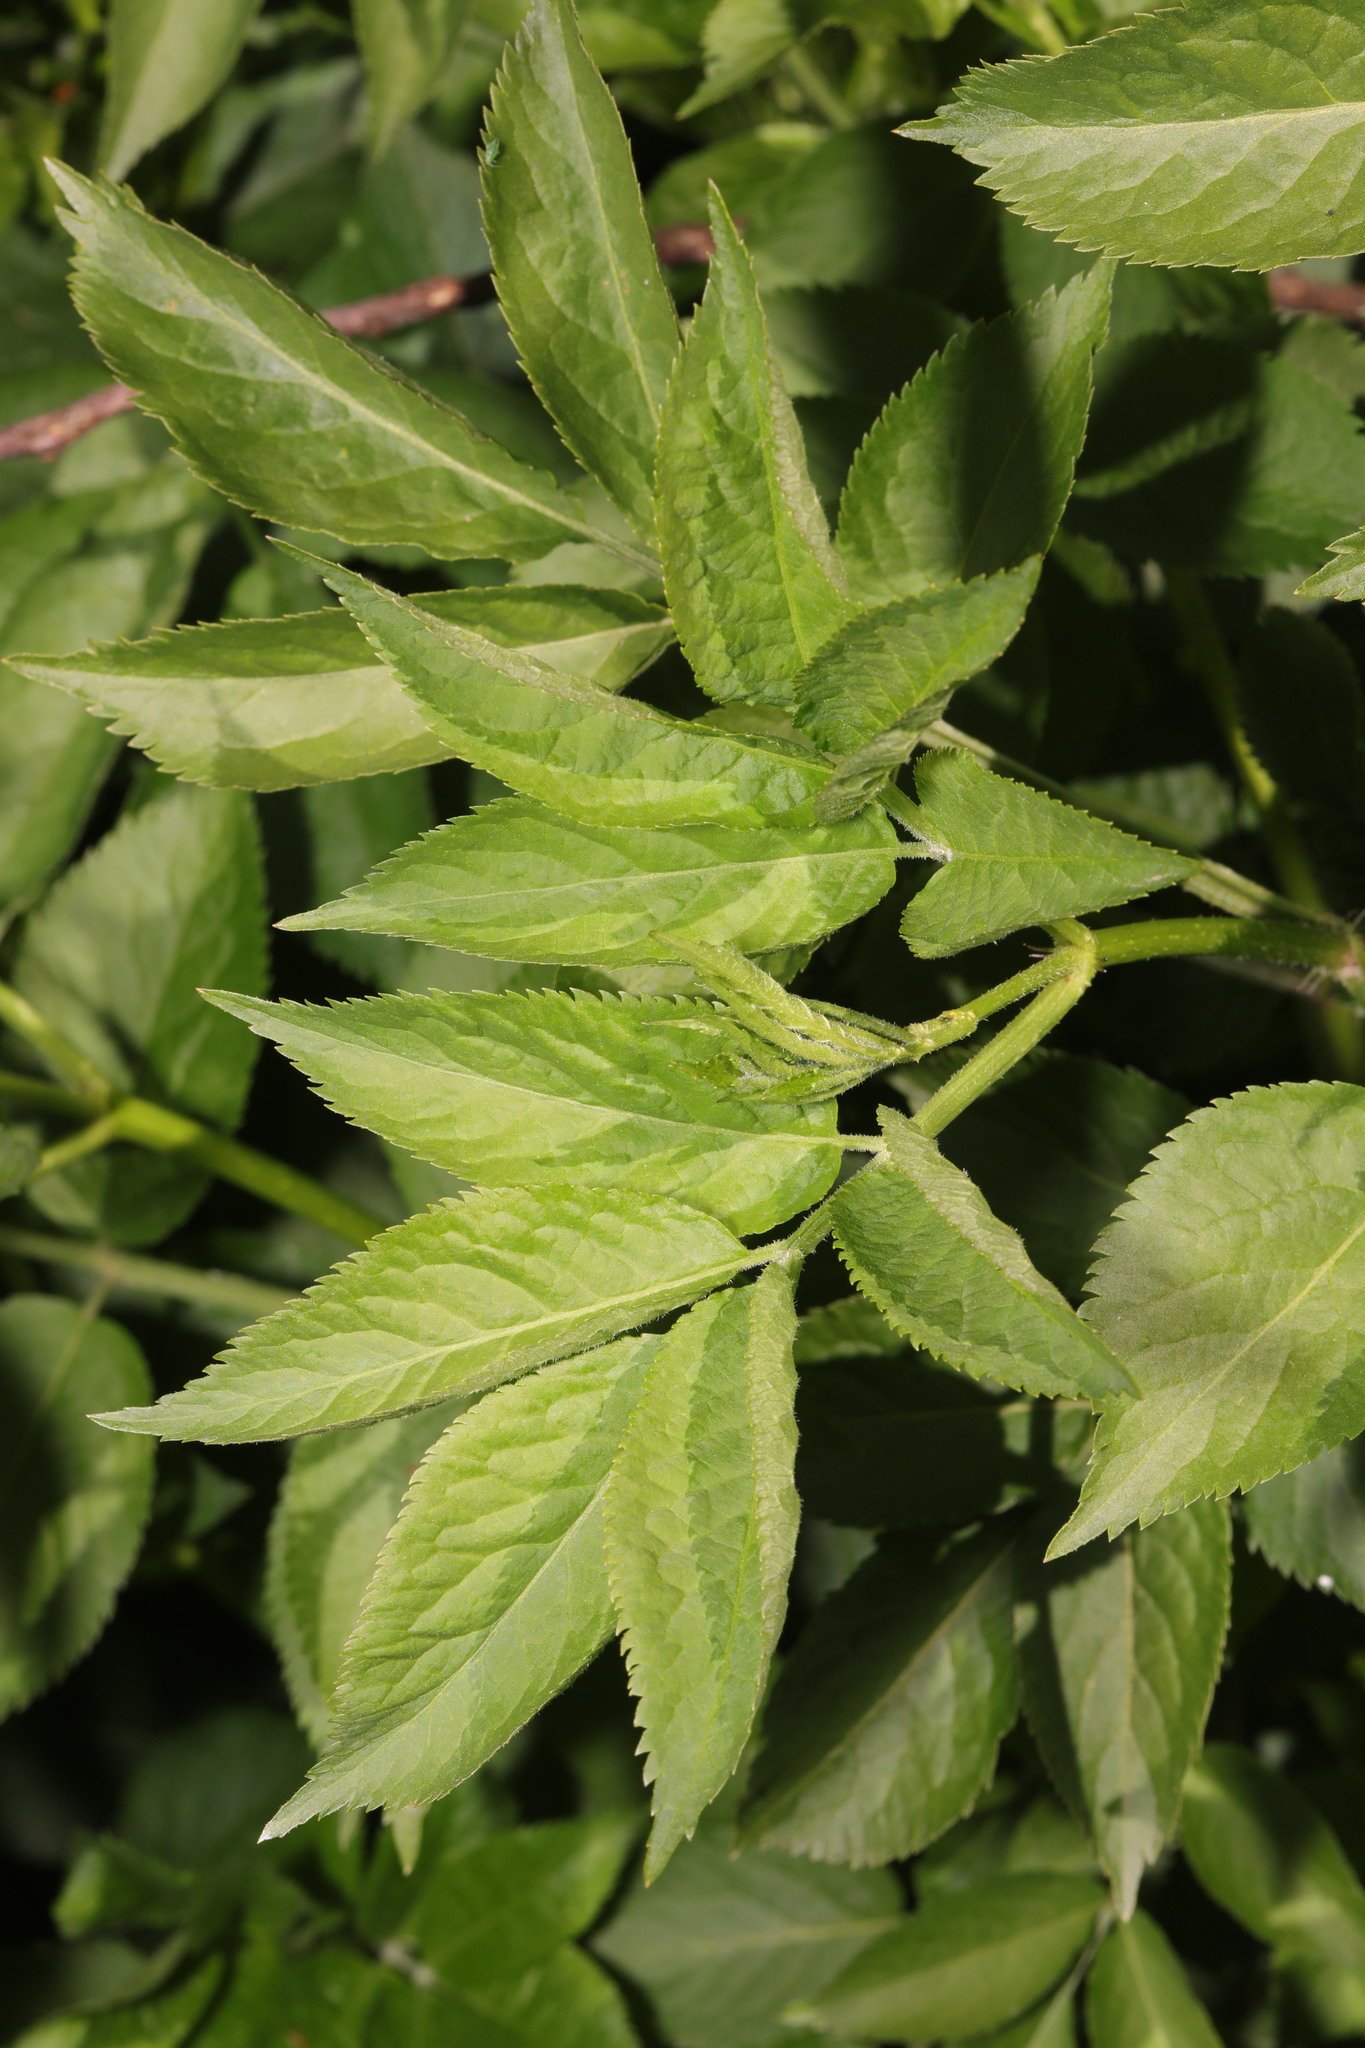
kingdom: Plantae
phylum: Tracheophyta
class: Magnoliopsida
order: Dipsacales
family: Viburnaceae
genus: Sambucus
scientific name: Sambucus nigra
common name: Elder
